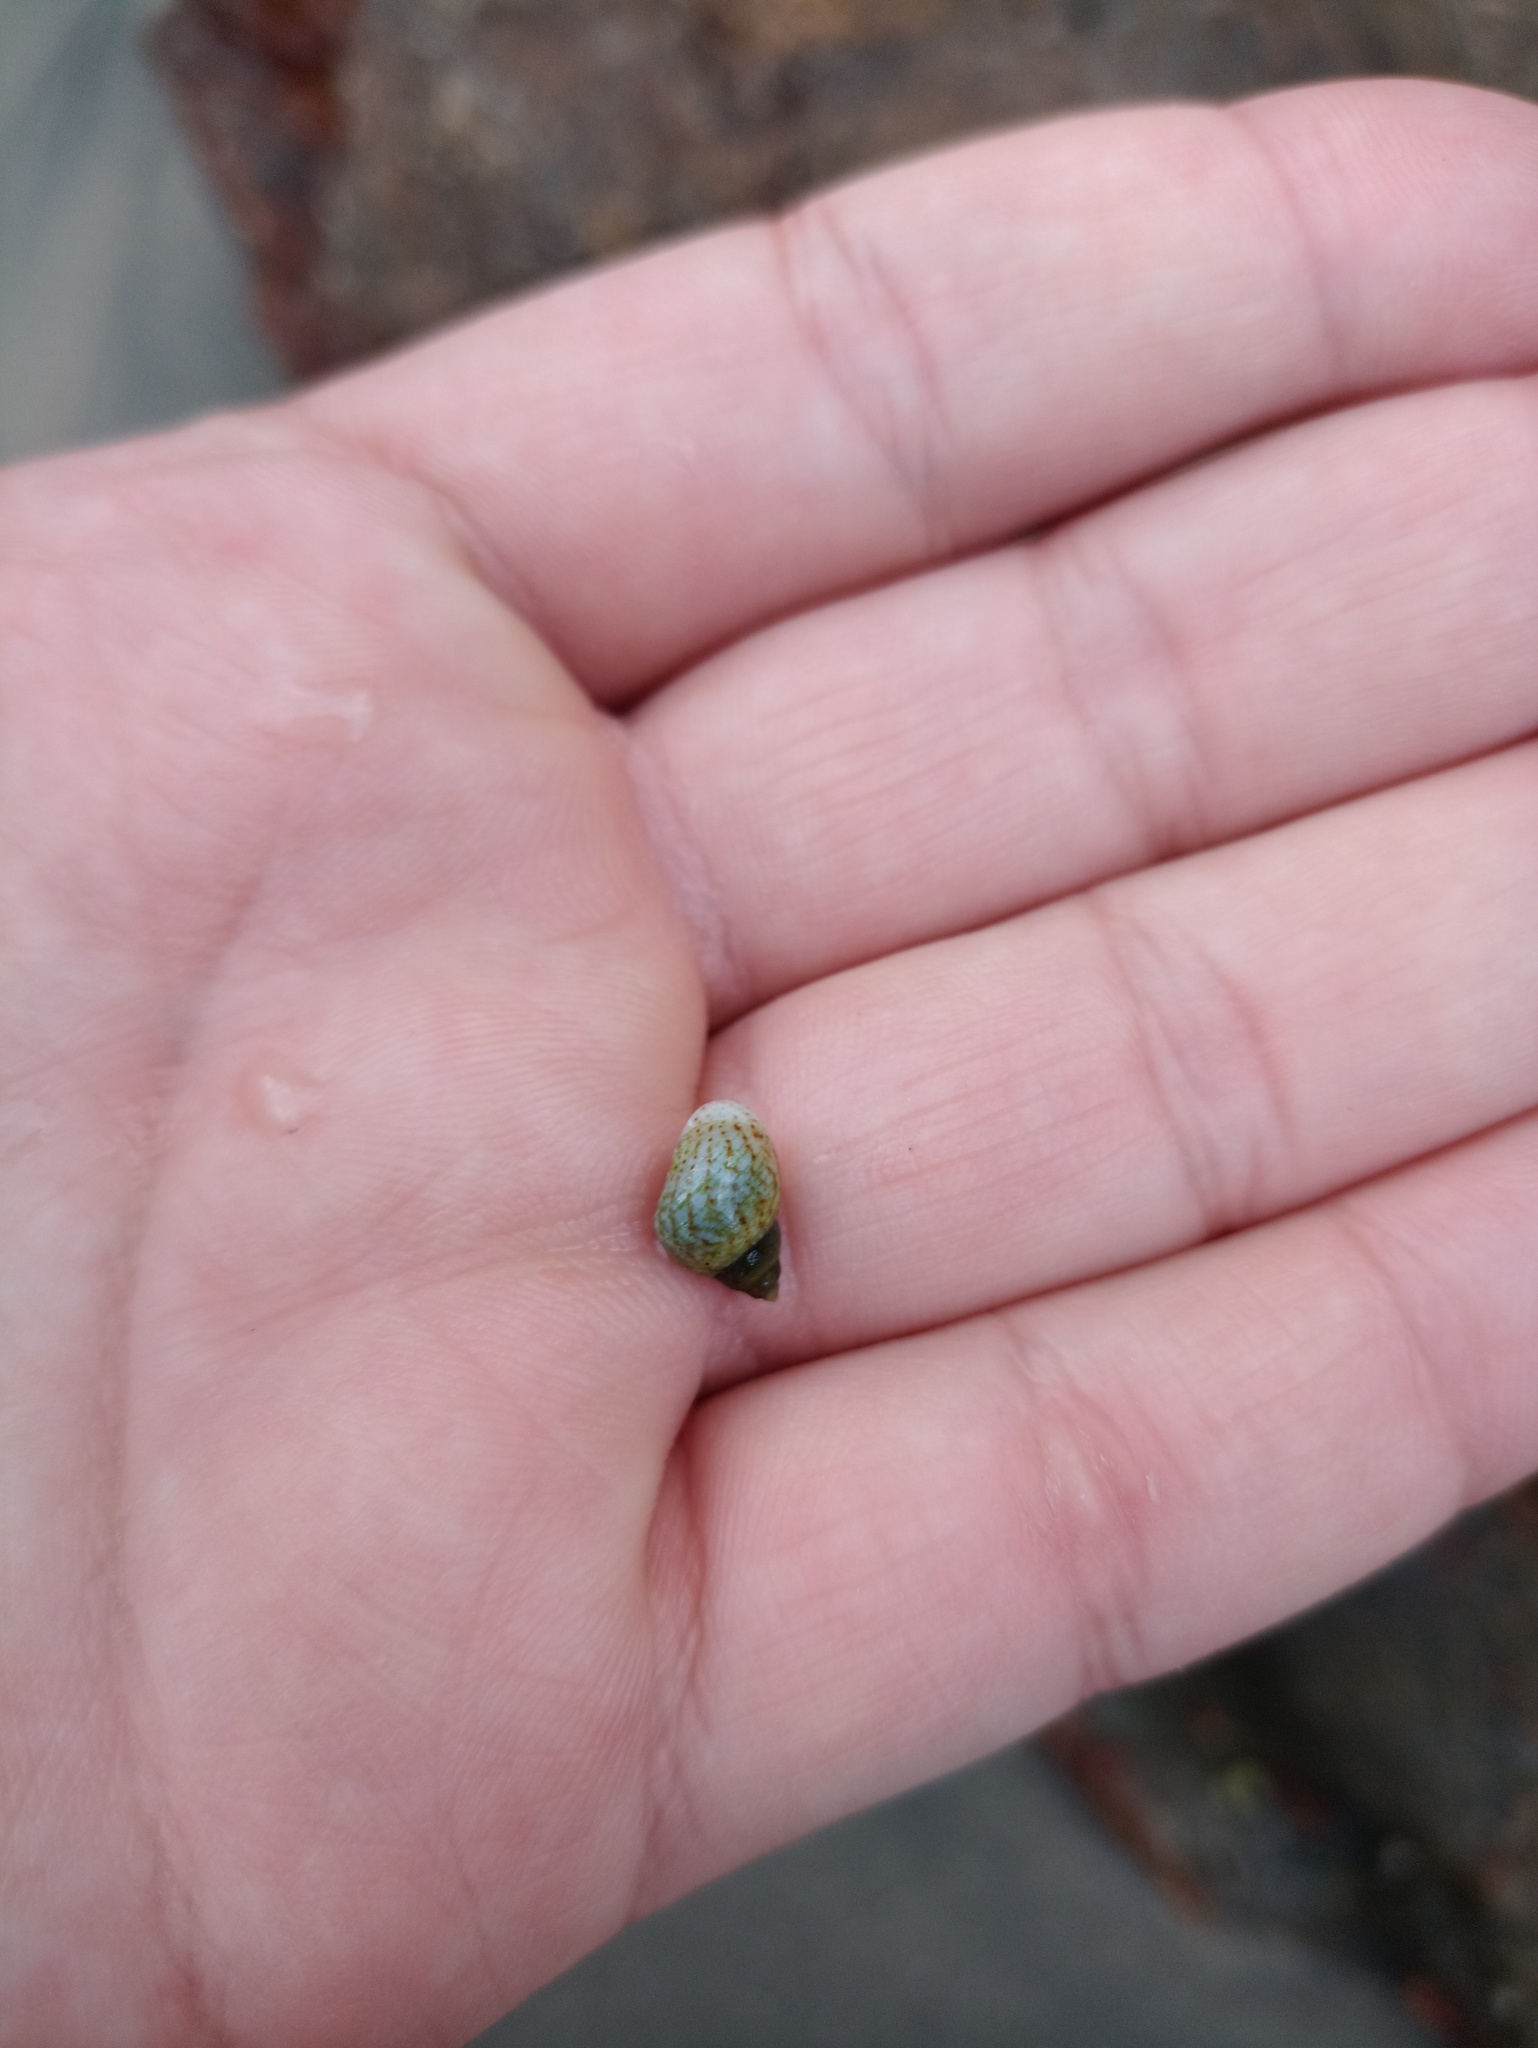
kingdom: Animalia
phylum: Mollusca
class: Gastropoda
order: Littorinimorpha
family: Littorinidae
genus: Littoraria
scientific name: Littoraria flava
